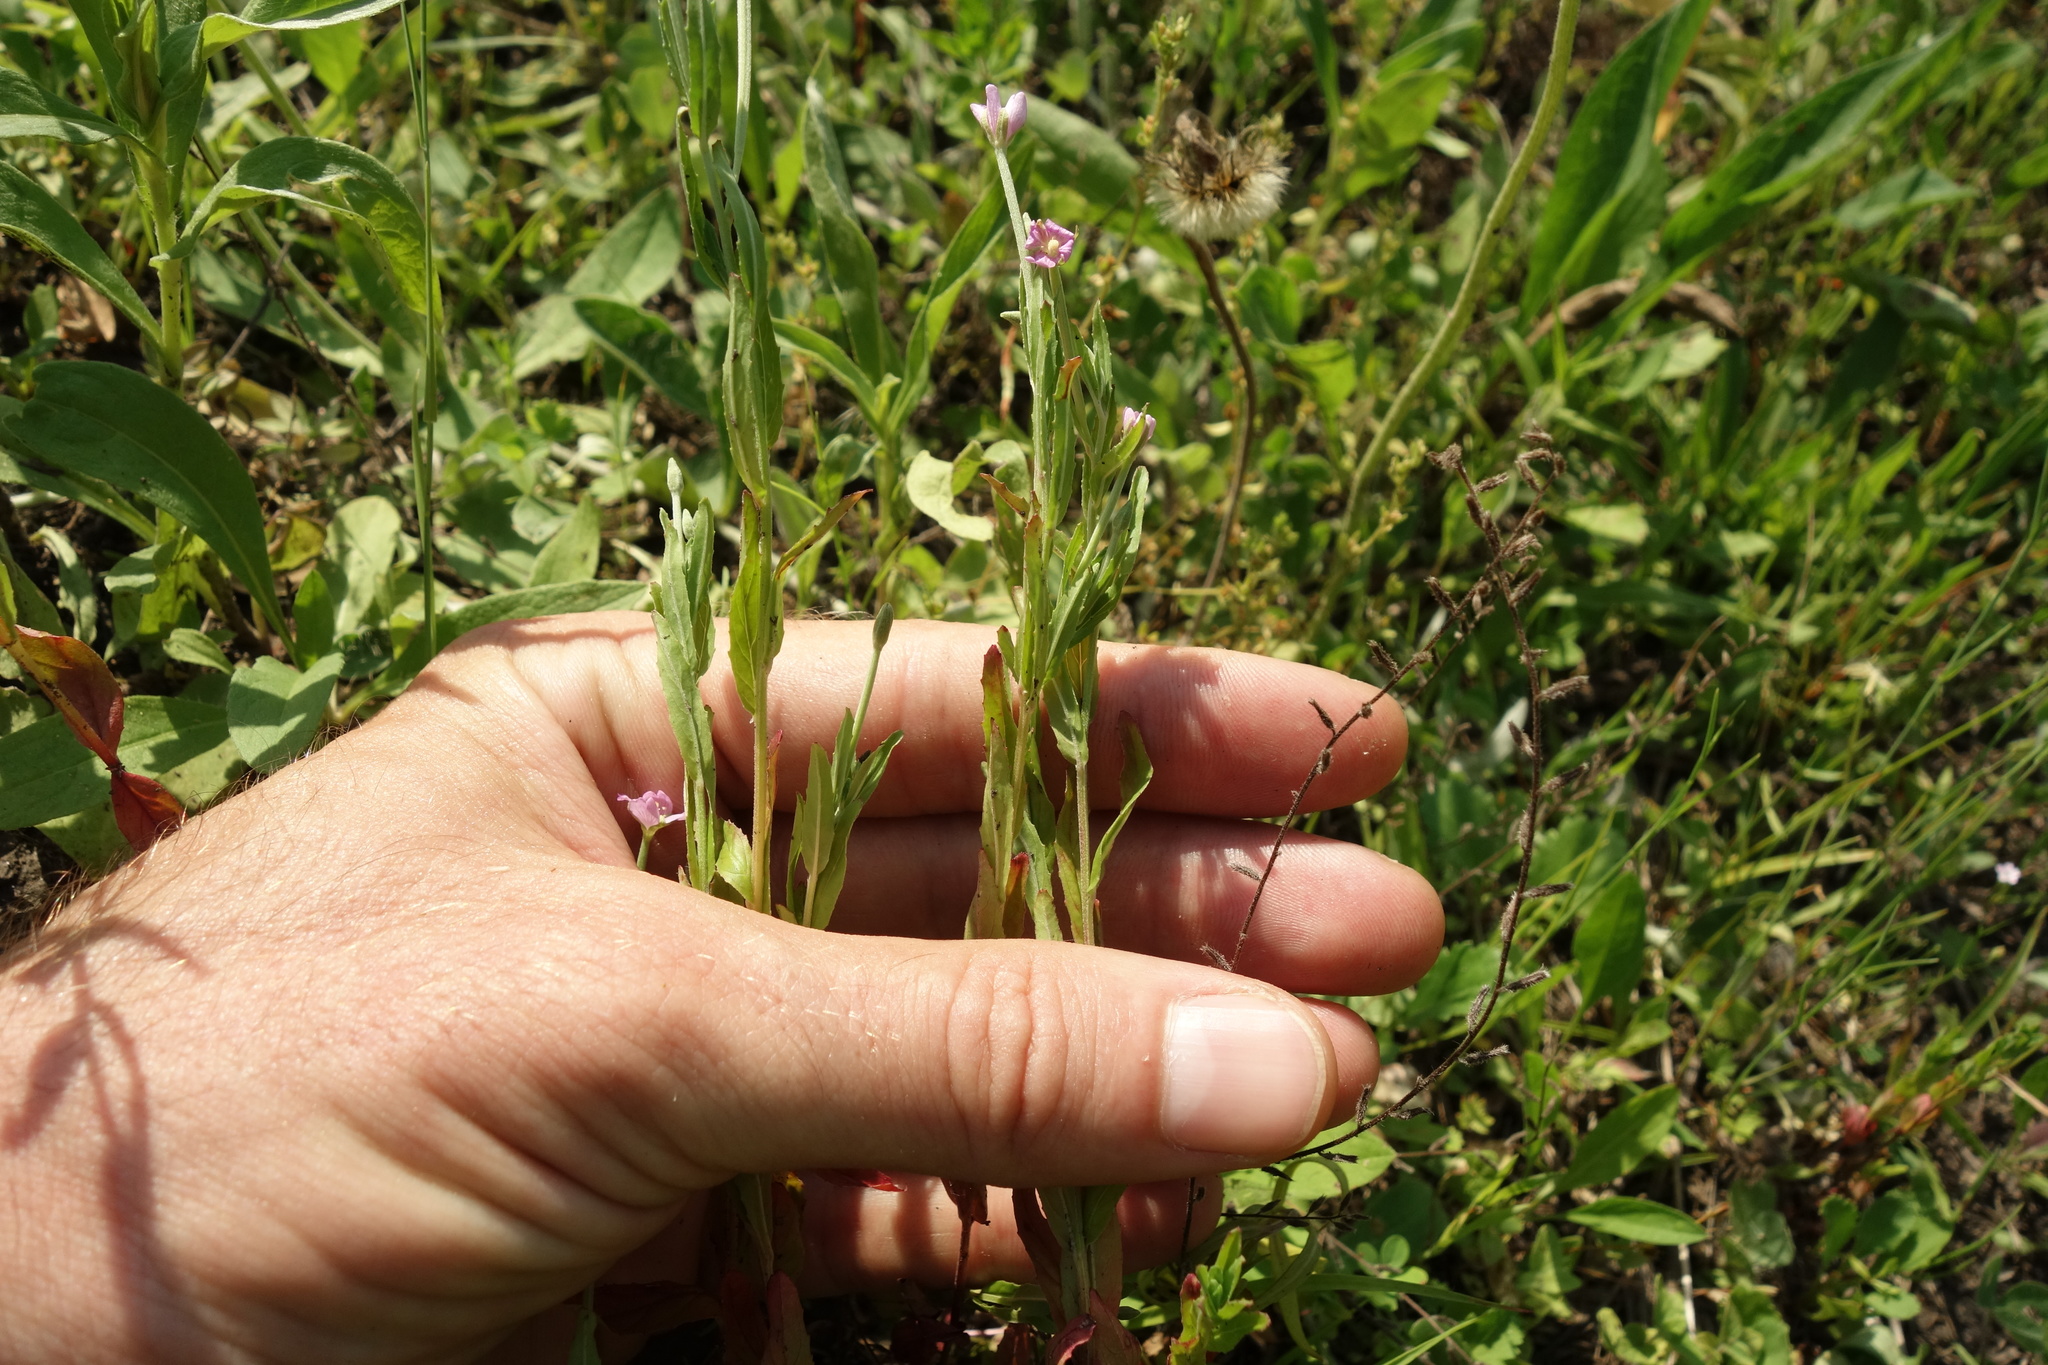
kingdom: Plantae
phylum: Tracheophyta
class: Magnoliopsida
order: Myrtales
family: Onagraceae
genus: Epilobium
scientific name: Epilobium tetragonum
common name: Square-stemmed willowherb
